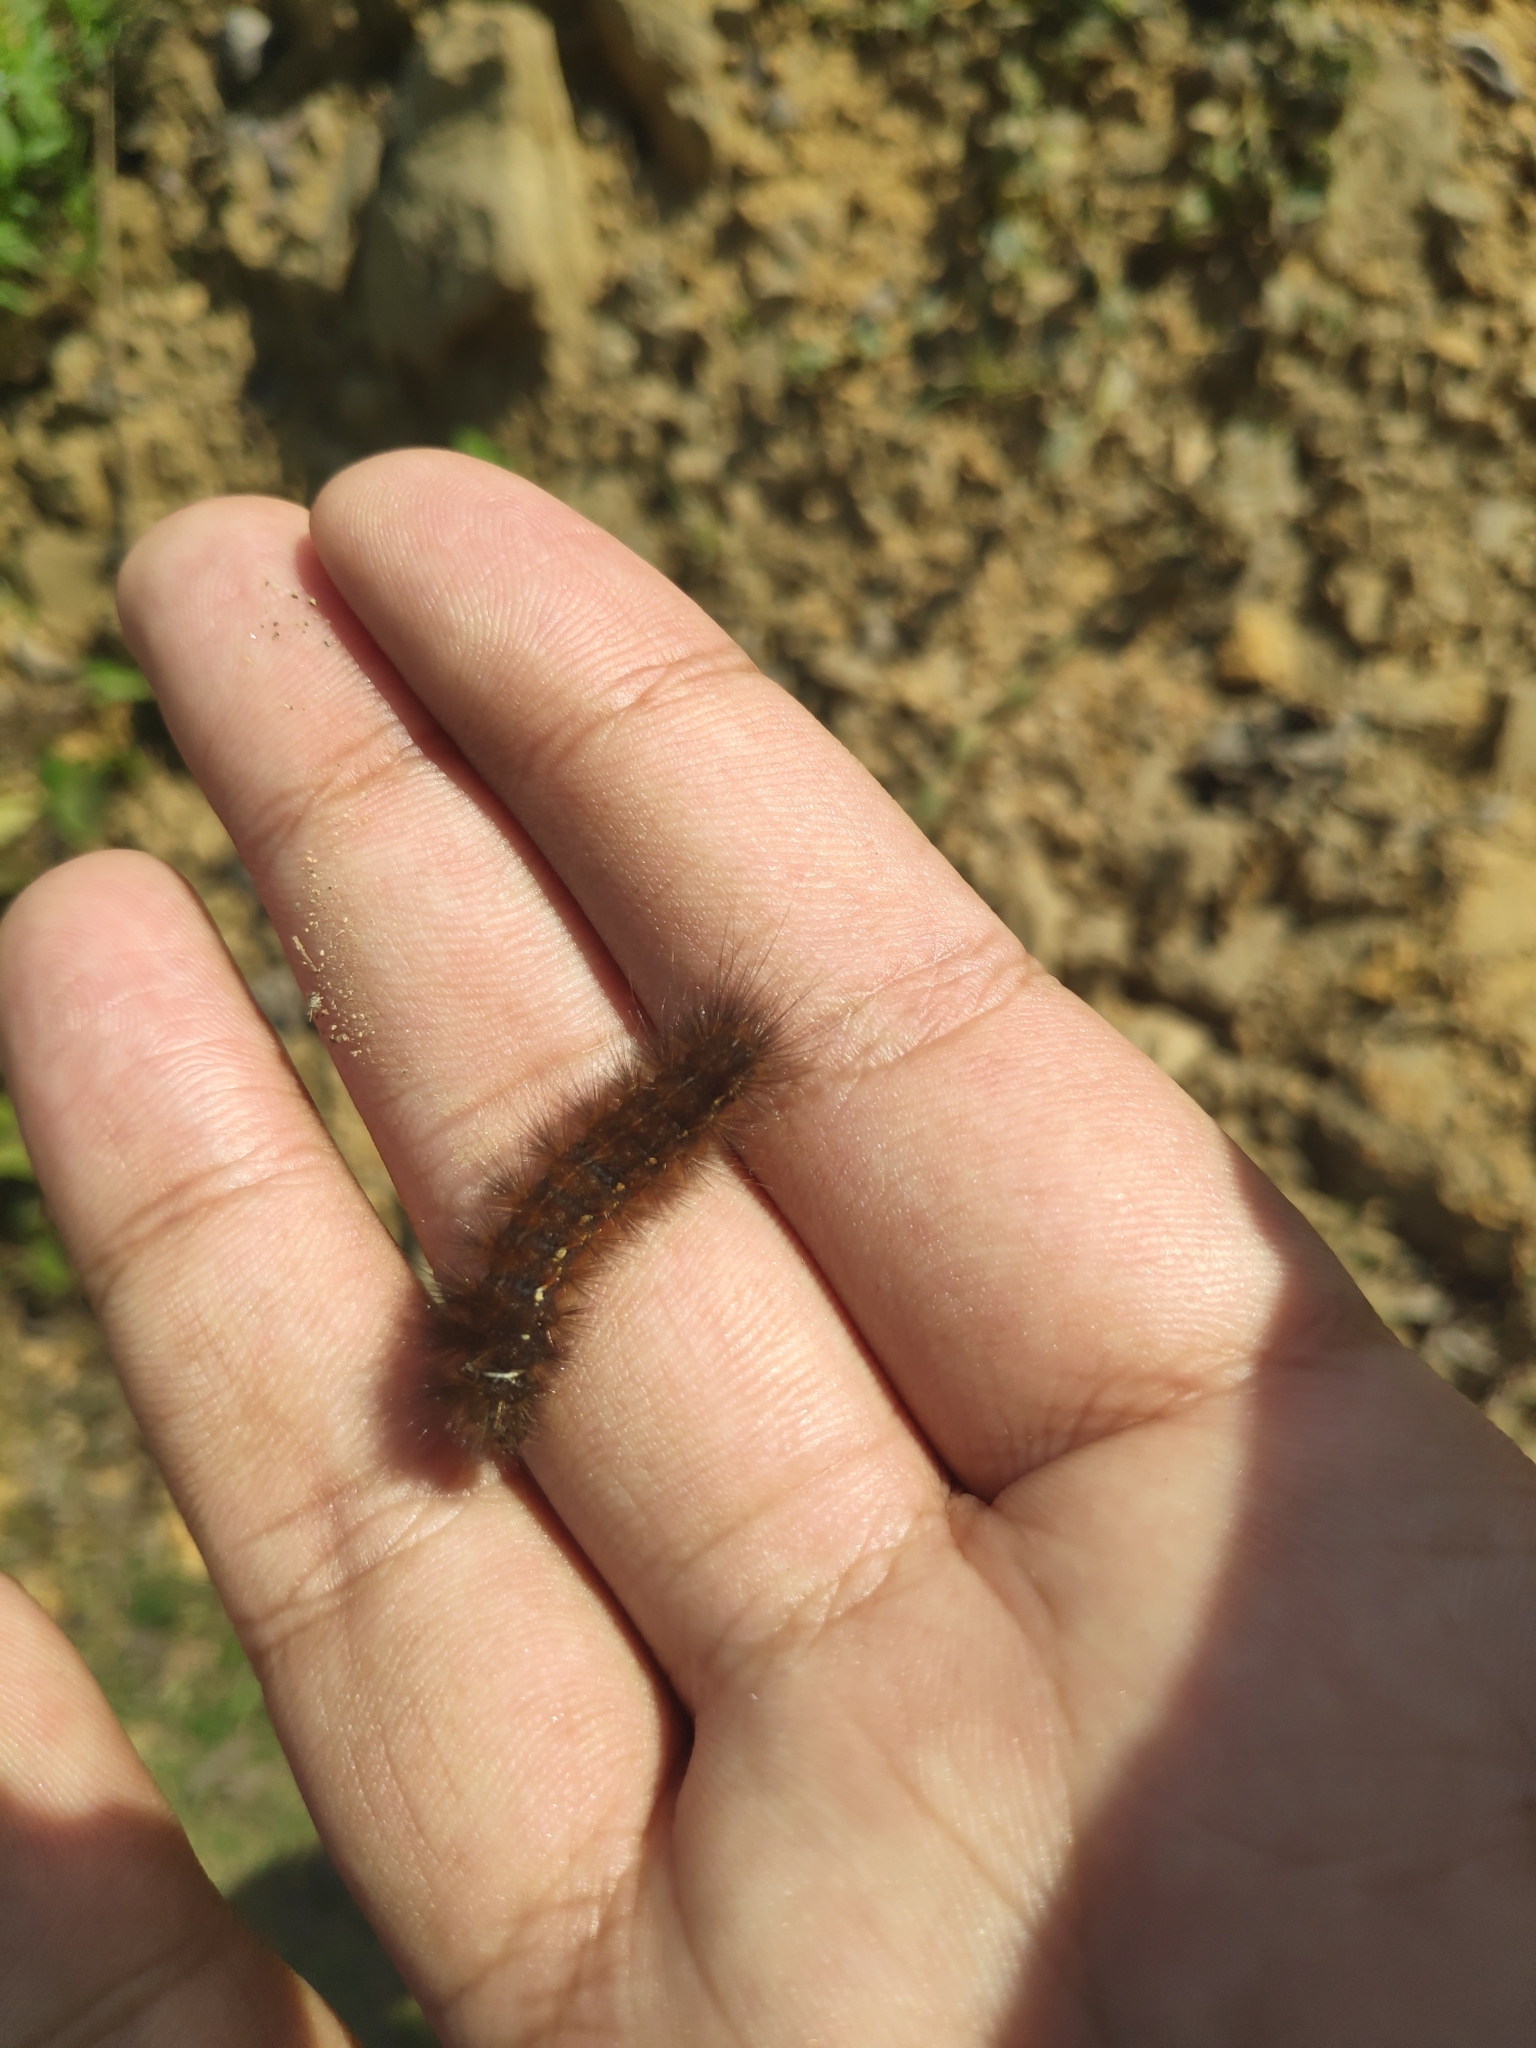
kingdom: Animalia
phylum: Arthropoda
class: Insecta
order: Lepidoptera
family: Erebidae
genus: Creatonotos
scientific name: Creatonotos transiens
